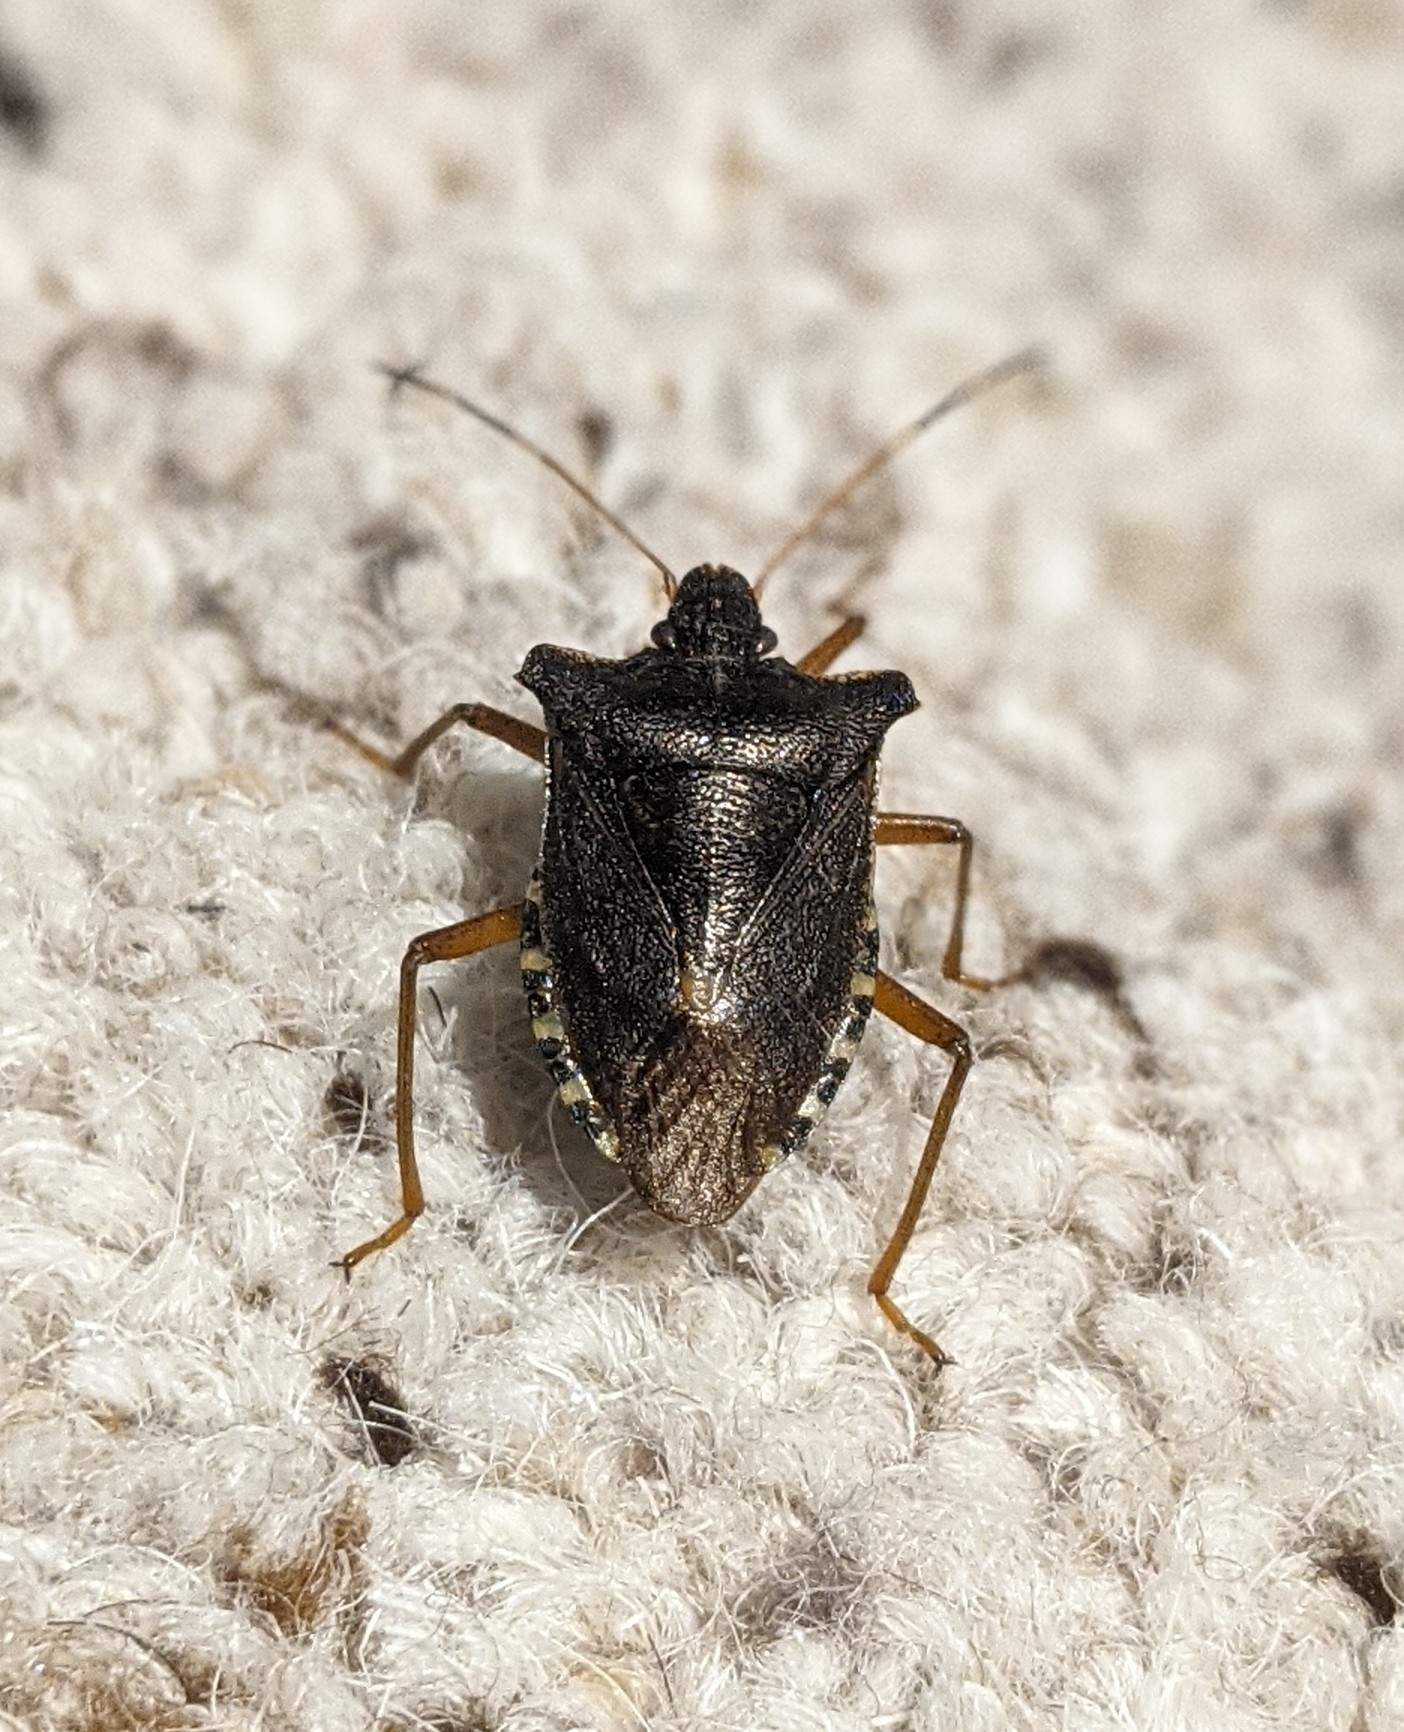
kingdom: Animalia
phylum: Arthropoda
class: Insecta
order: Hemiptera
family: Pentatomidae
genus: Pentatoma
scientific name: Pentatoma rufipes
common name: Forest bug
